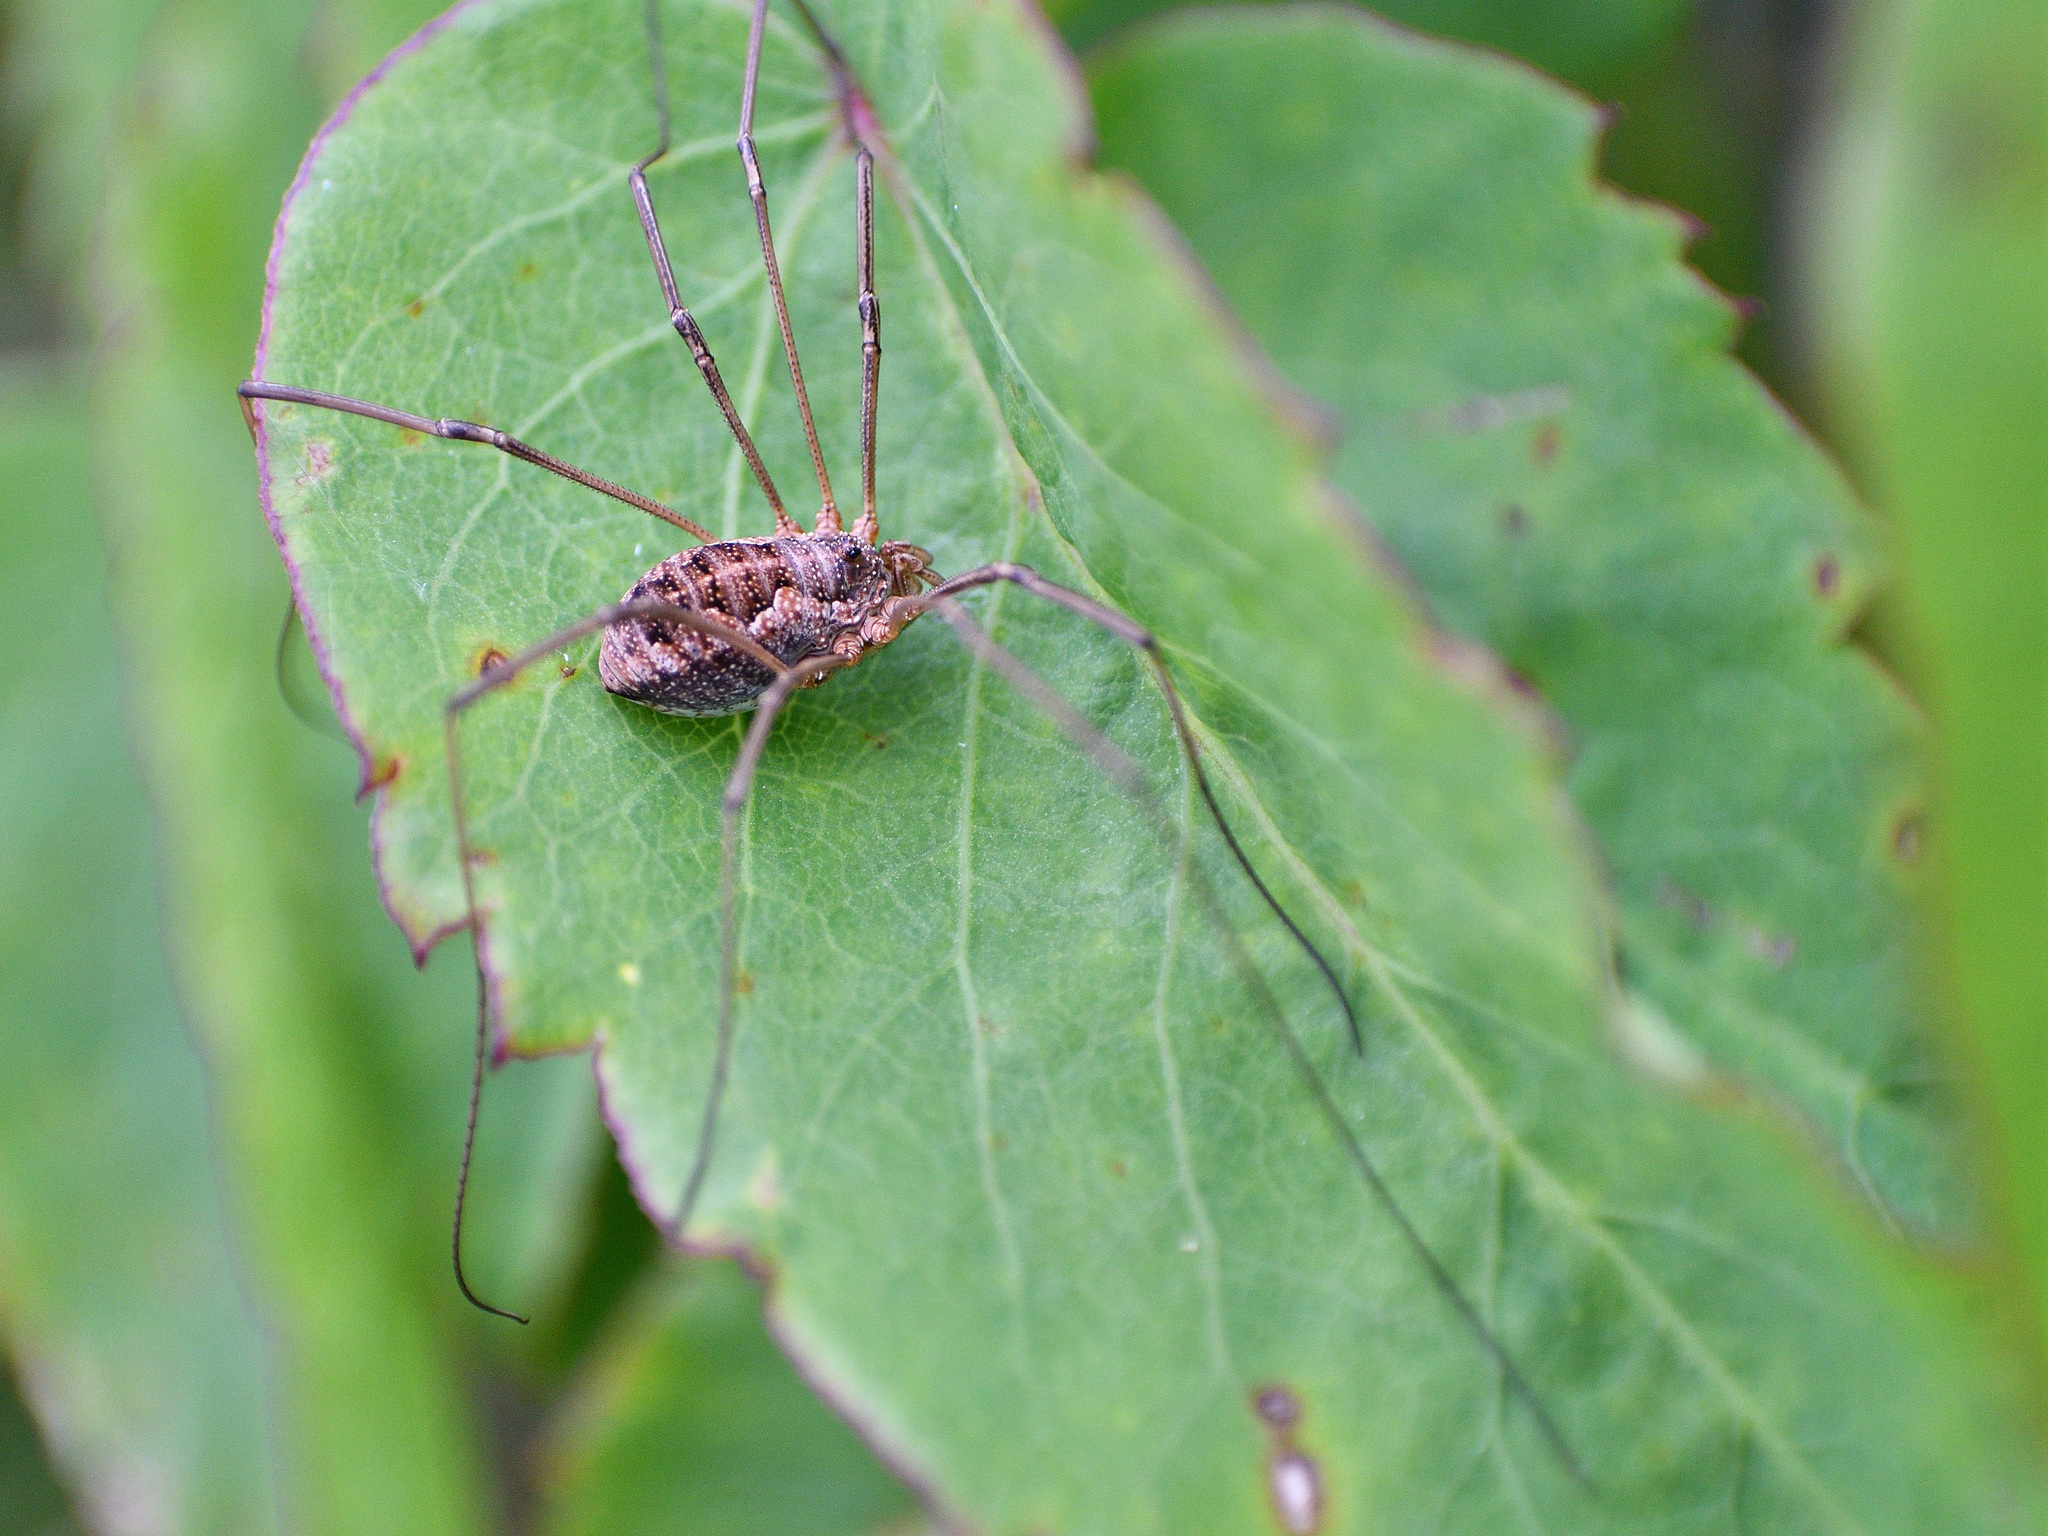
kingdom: Animalia
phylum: Arthropoda
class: Arachnida
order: Opiliones
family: Phalangiidae
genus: Phalangium
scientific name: Phalangium opilio
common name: Daddy longleg
